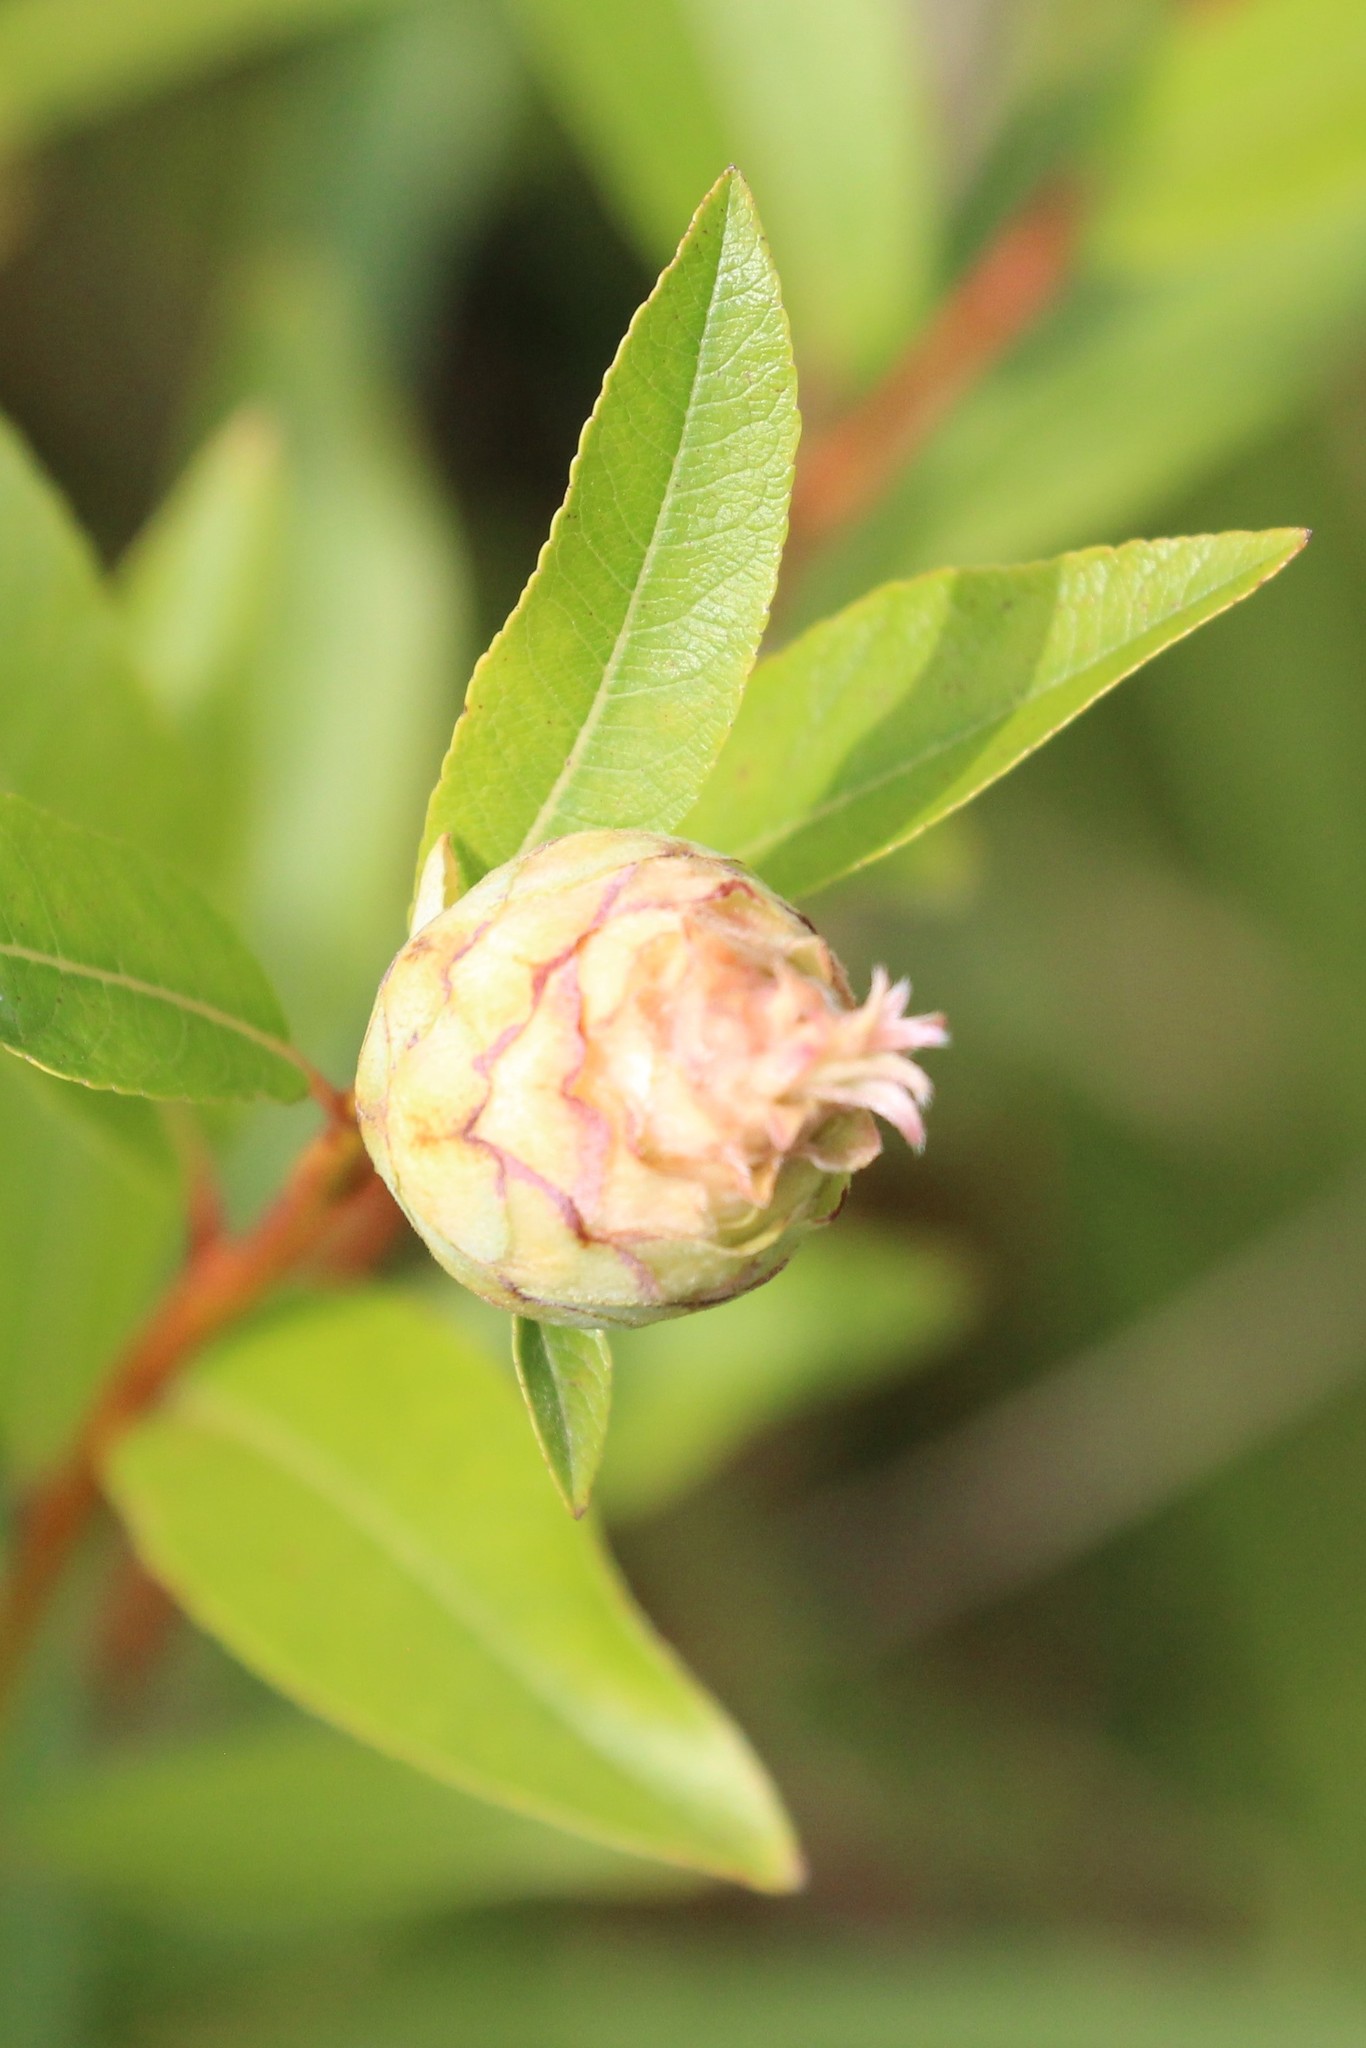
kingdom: Animalia
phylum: Arthropoda
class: Insecta
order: Diptera
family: Cecidomyiidae
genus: Rabdophaga
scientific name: Rabdophaga strobiloides
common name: Willow pinecone gall midge
